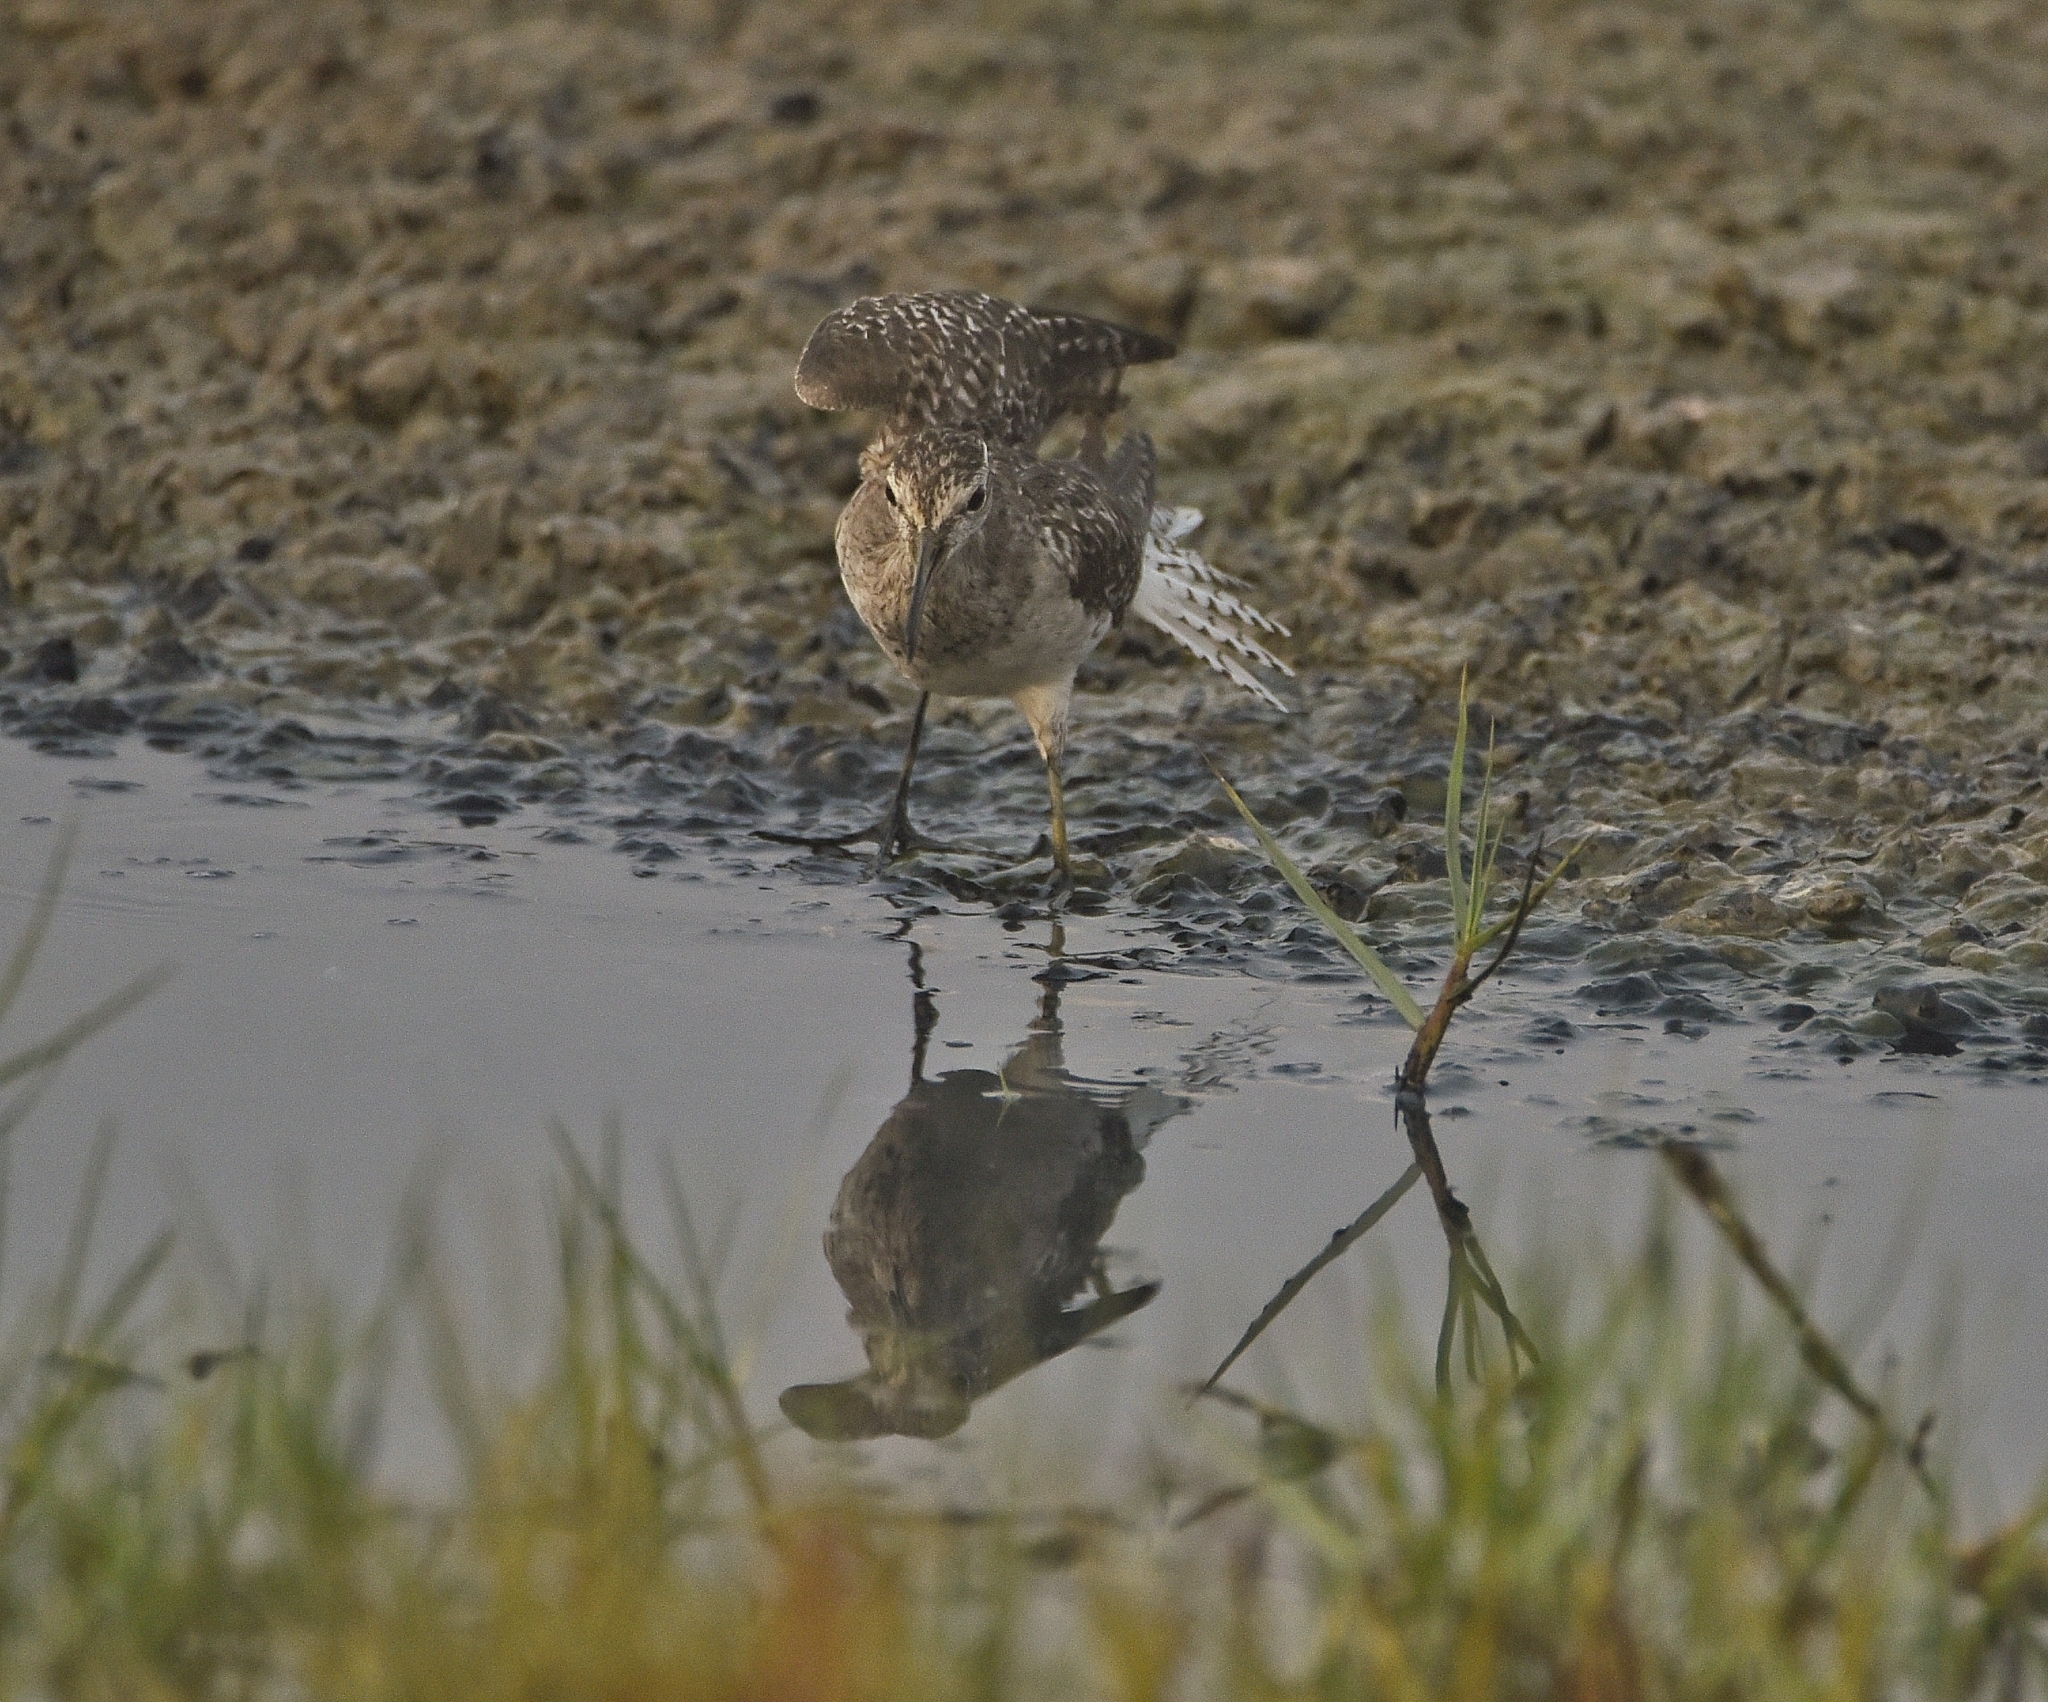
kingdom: Animalia
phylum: Chordata
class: Aves
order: Charadriiformes
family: Scolopacidae
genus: Tringa
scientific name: Tringa glareola
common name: Wood sandpiper
